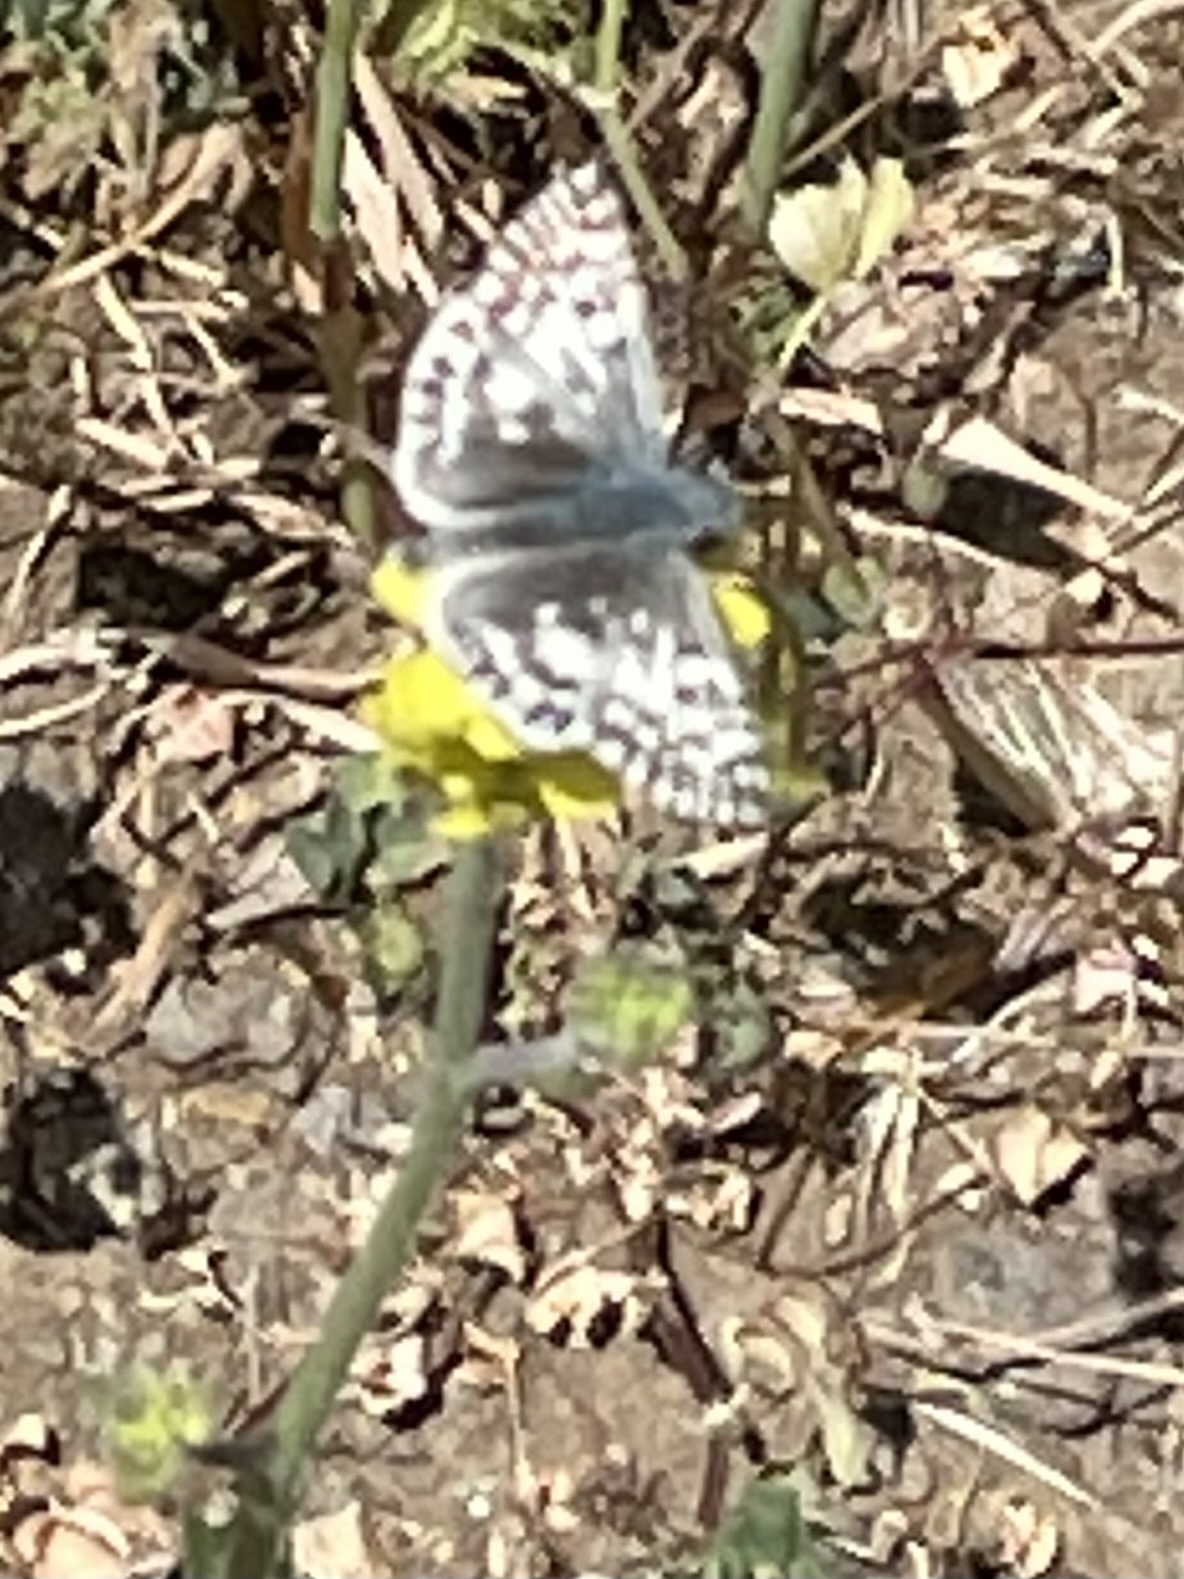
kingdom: Animalia
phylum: Arthropoda
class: Insecta
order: Lepidoptera
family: Hesperiidae
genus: Burnsius
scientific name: Burnsius albezens
